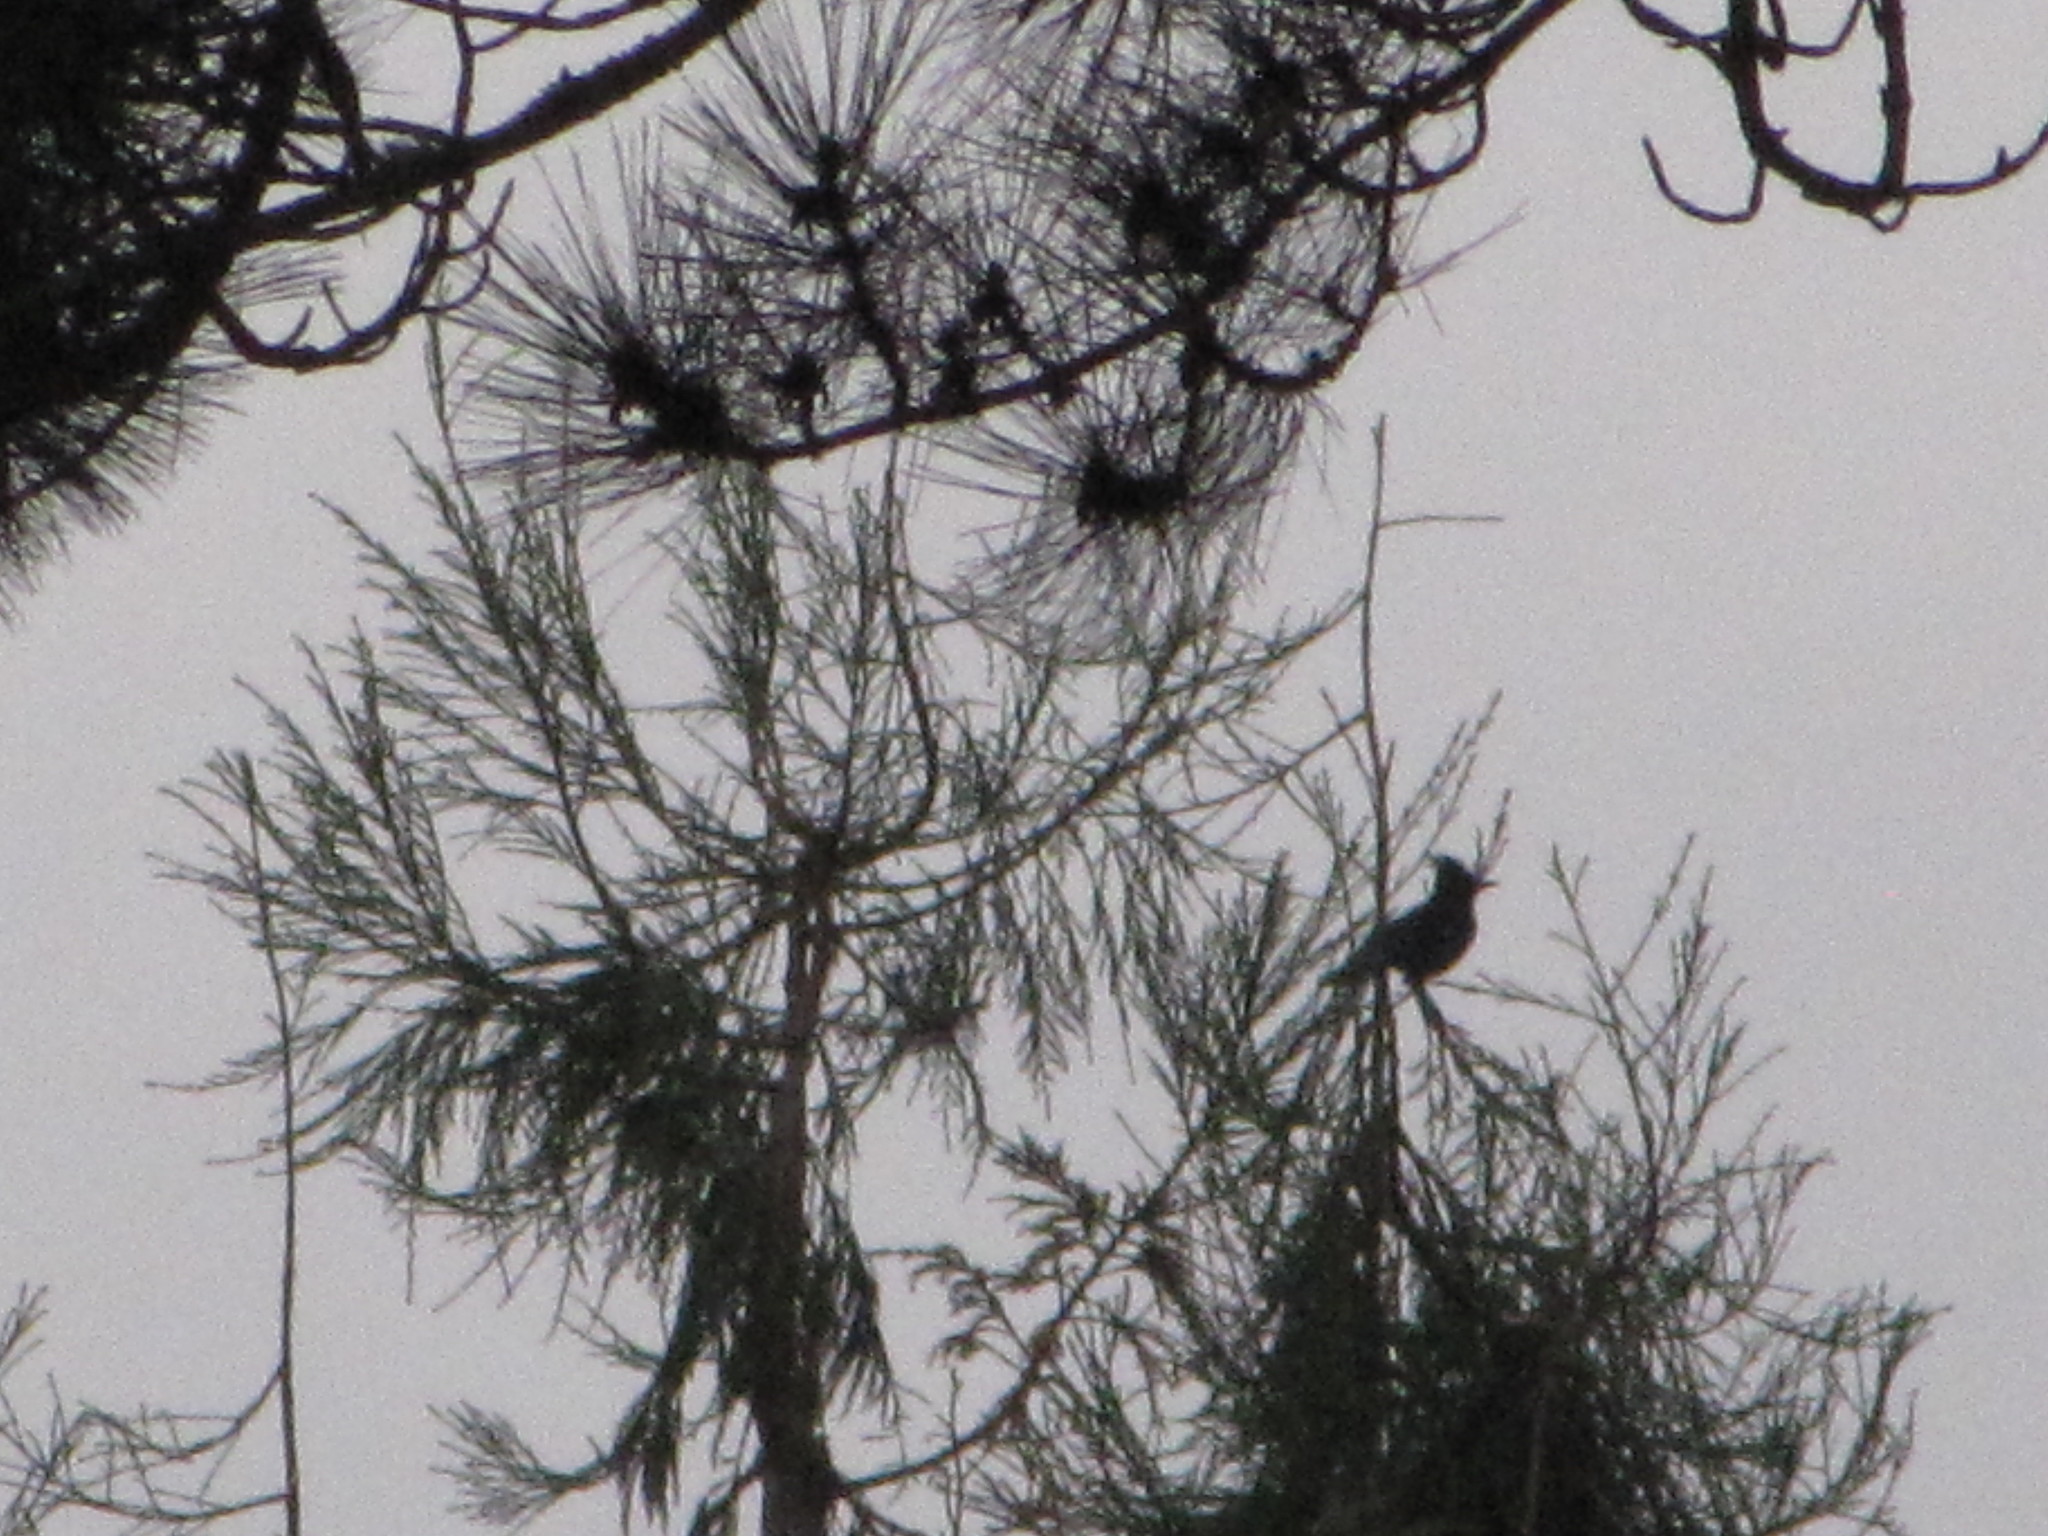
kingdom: Animalia
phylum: Chordata
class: Aves
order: Passeriformes
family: Corvidae
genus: Cyanocitta
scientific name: Cyanocitta stelleri
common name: Steller's jay
